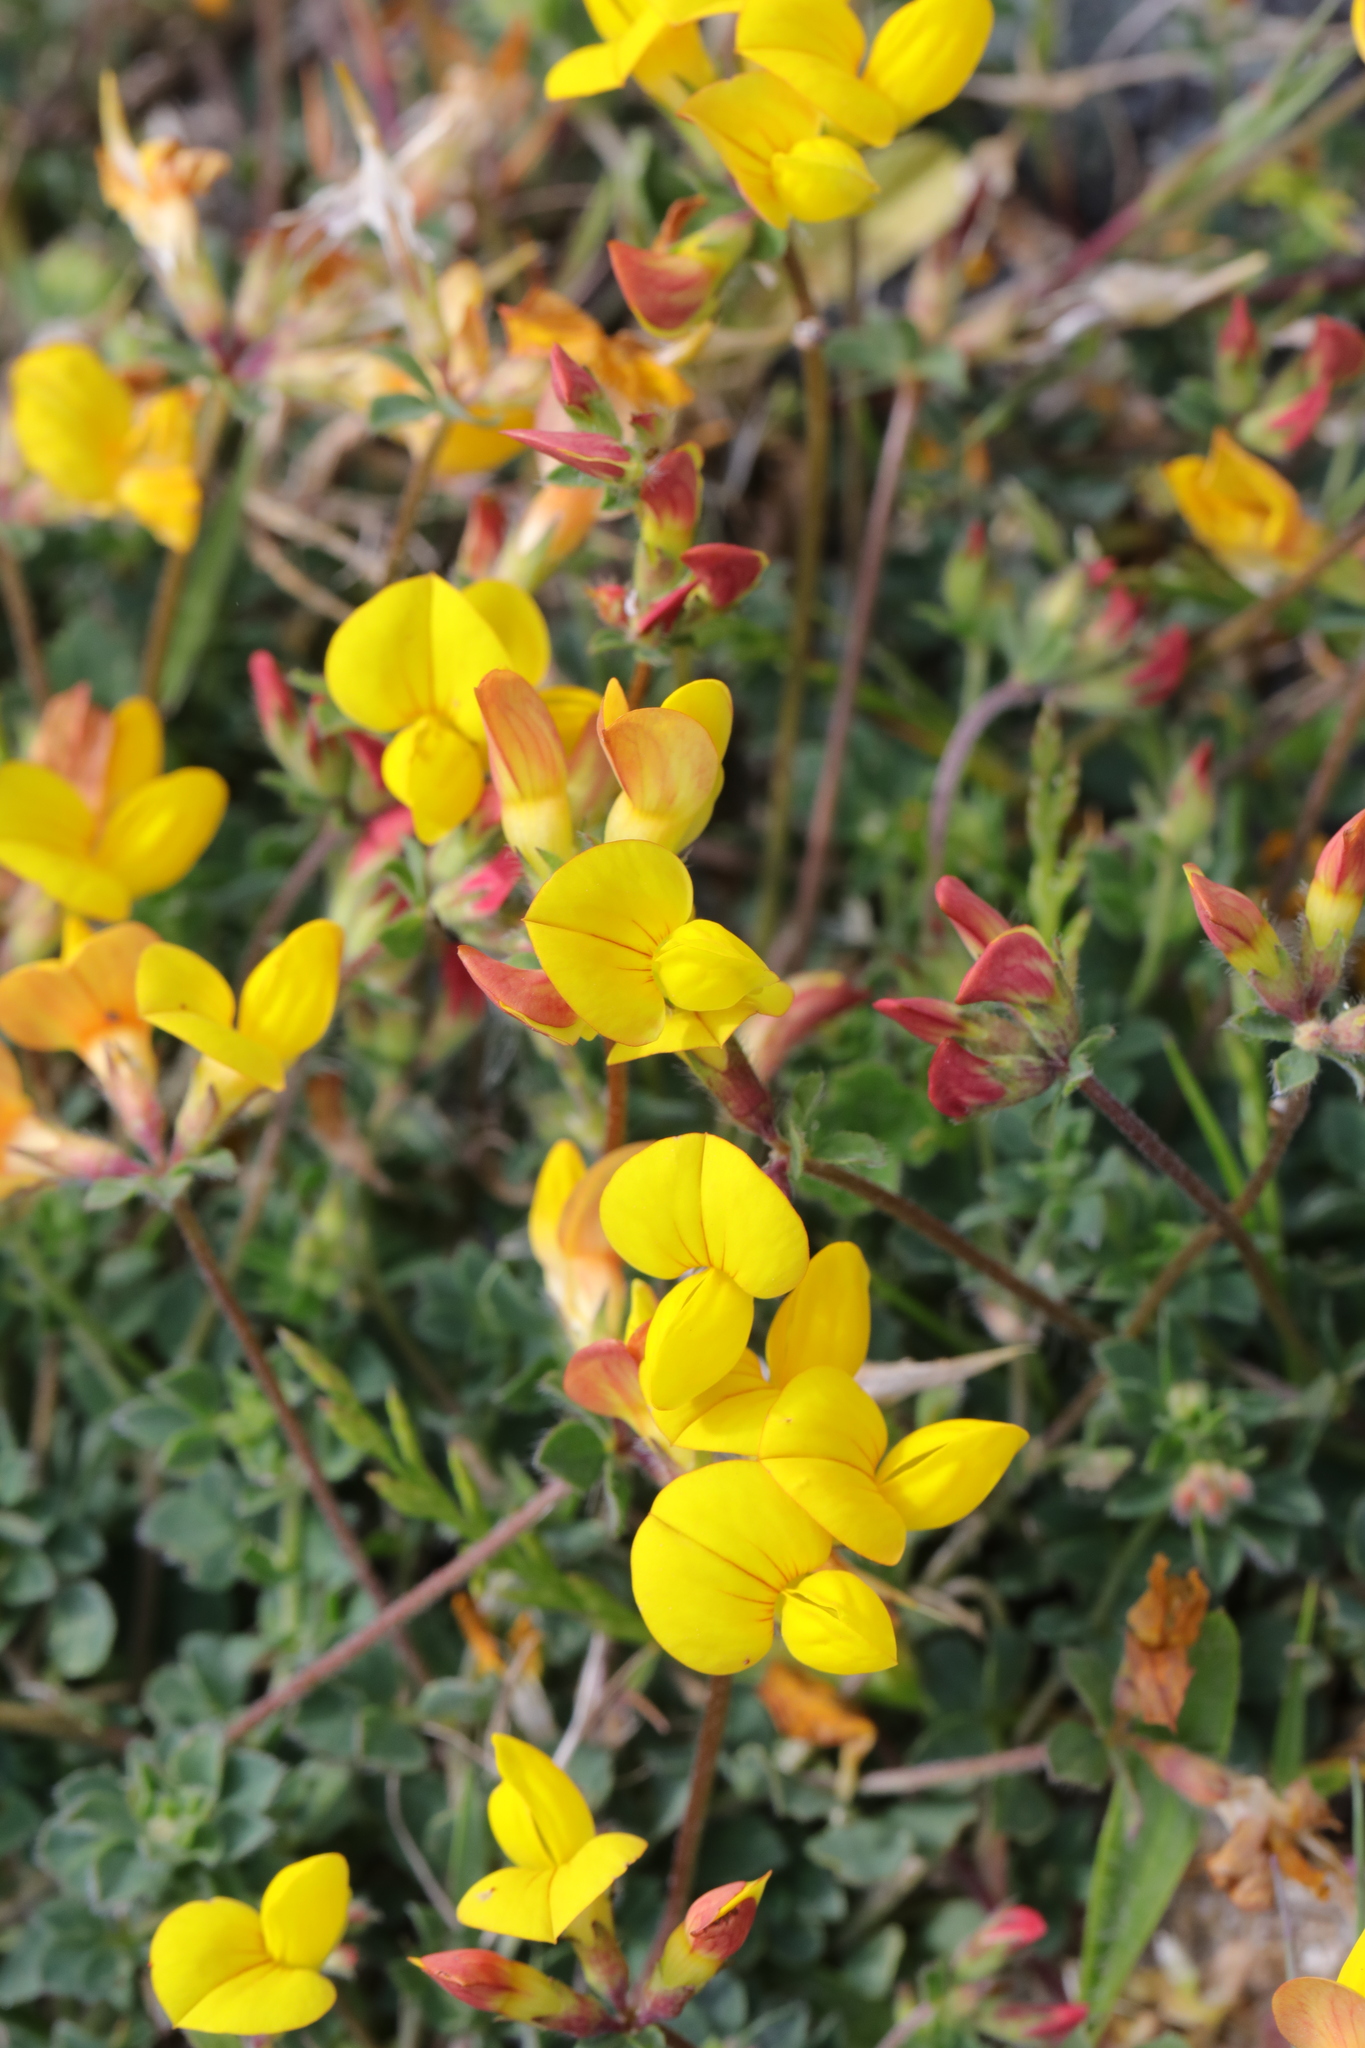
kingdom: Plantae
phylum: Tracheophyta
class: Magnoliopsida
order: Fabales
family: Fabaceae
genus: Lotus
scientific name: Lotus corniculatus
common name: Common bird's-foot-trefoil
